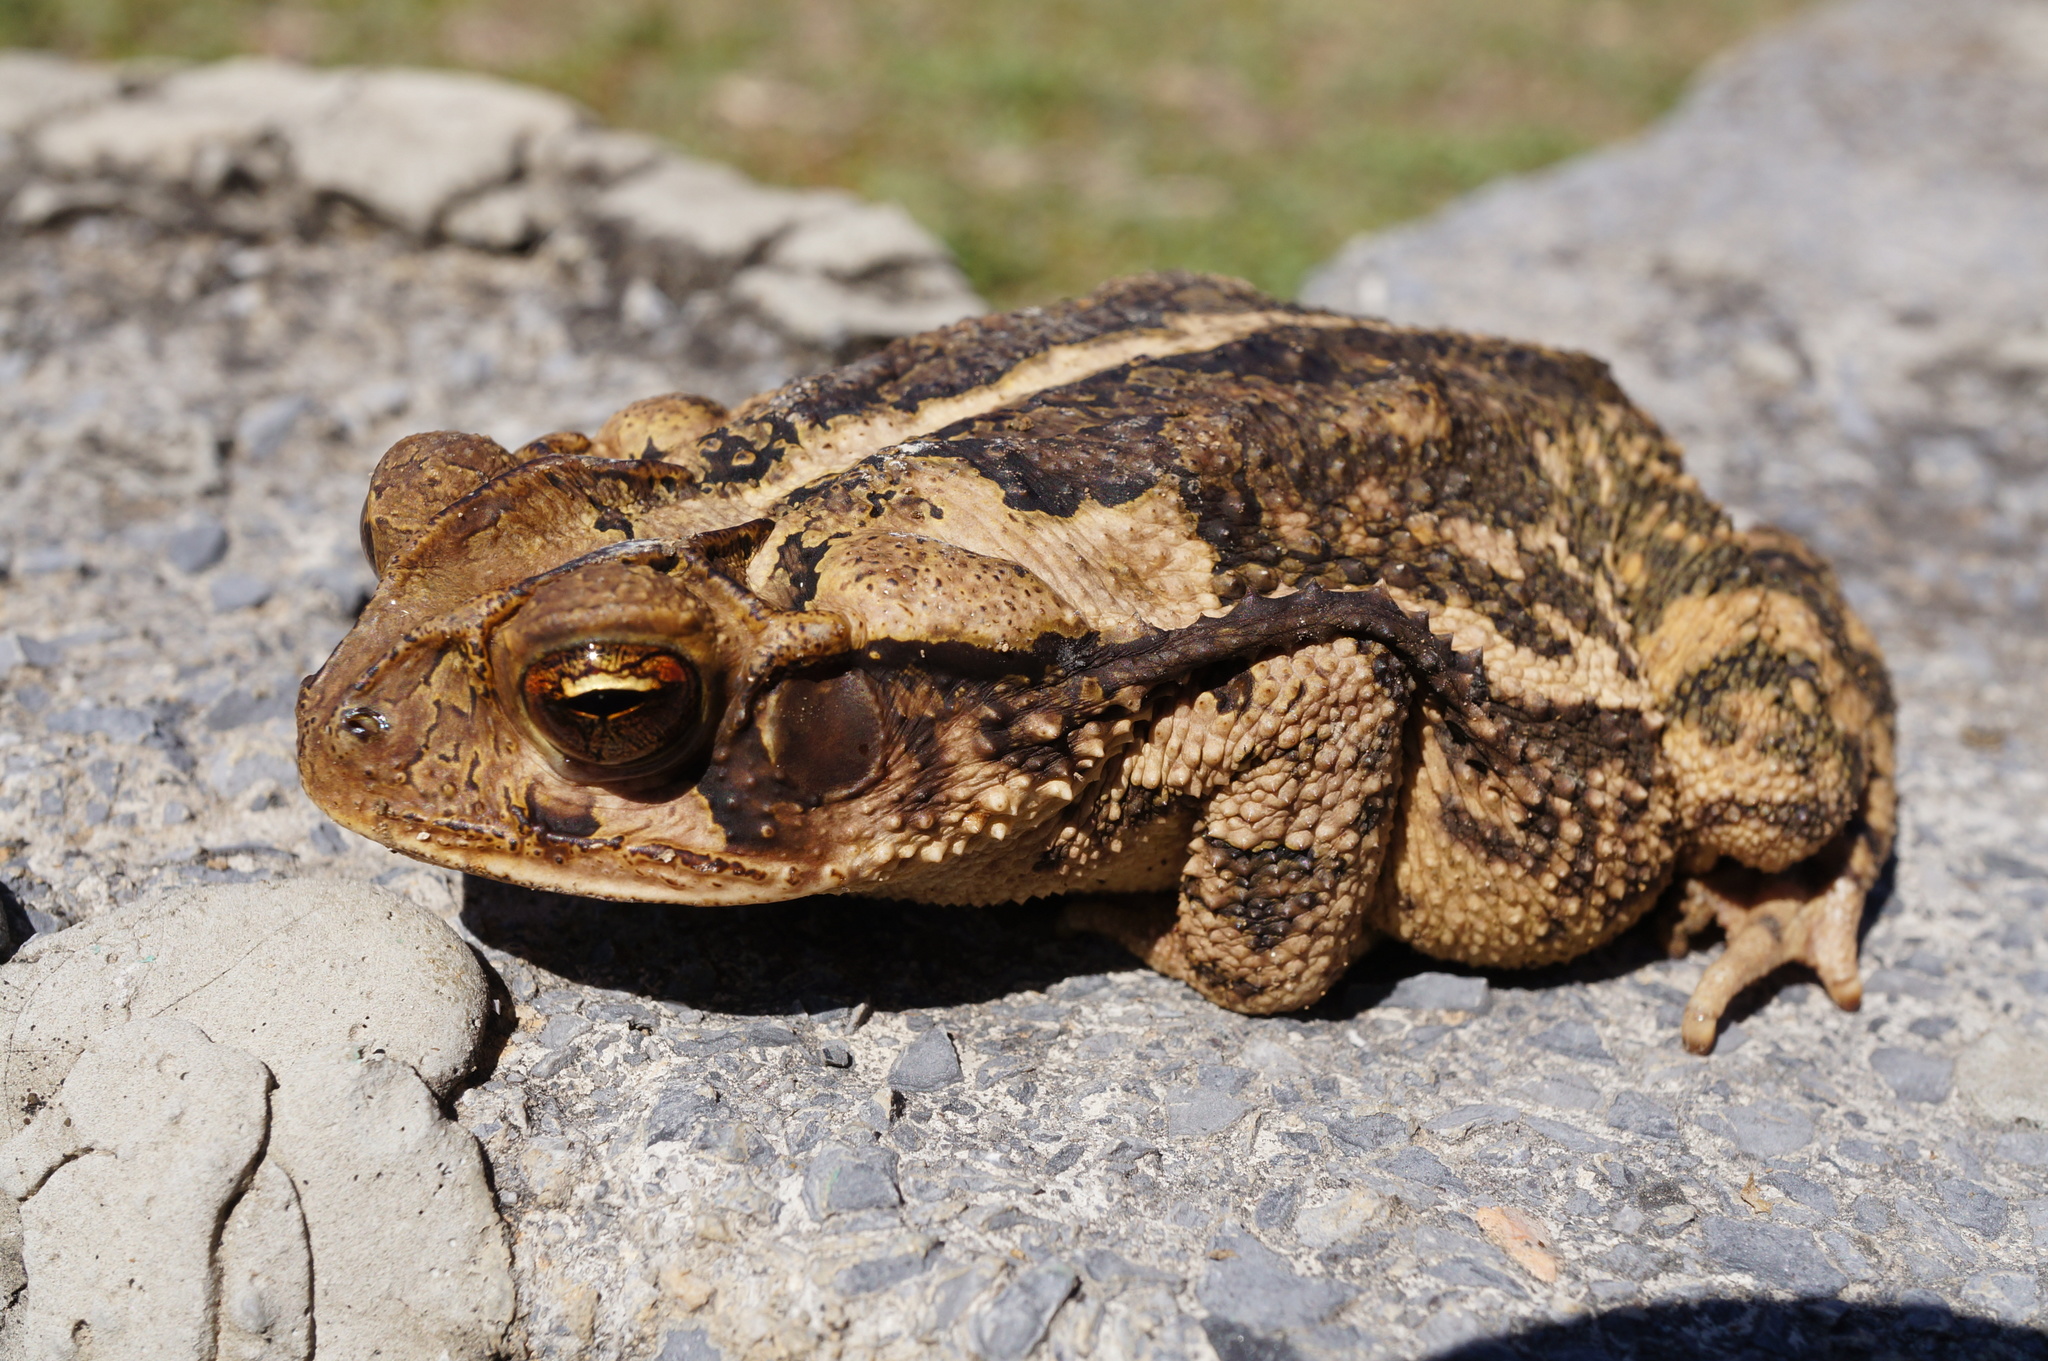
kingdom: Animalia
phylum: Chordata
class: Amphibia
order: Anura
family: Bufonidae
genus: Incilius
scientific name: Incilius nebulifer
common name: Gulf coast toad
